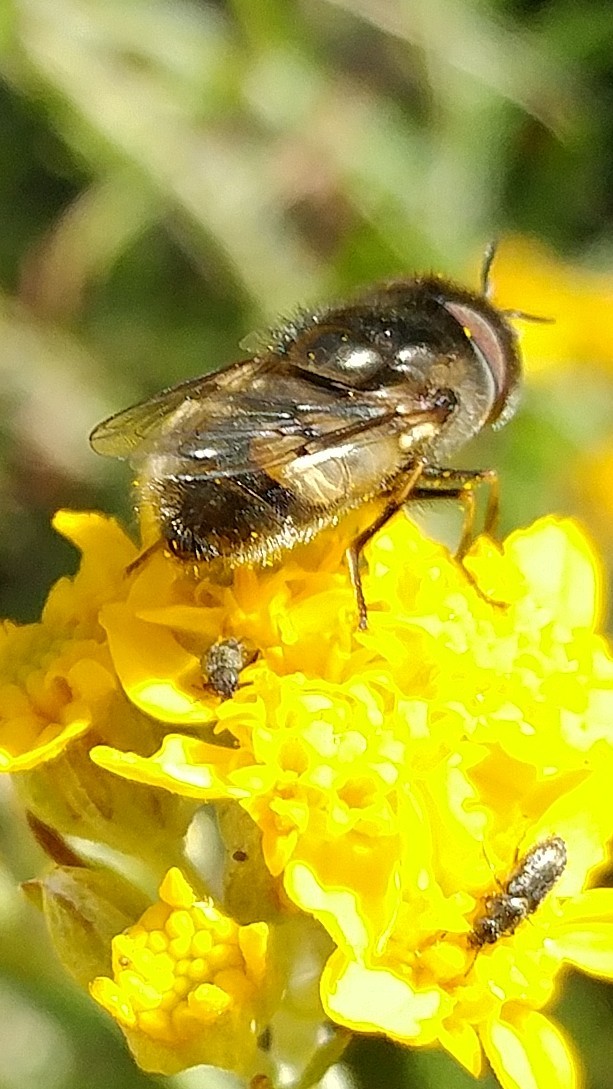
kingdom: Animalia
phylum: Arthropoda
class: Insecta
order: Diptera
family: Syrphidae
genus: Copestylum
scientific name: Copestylum lentum
